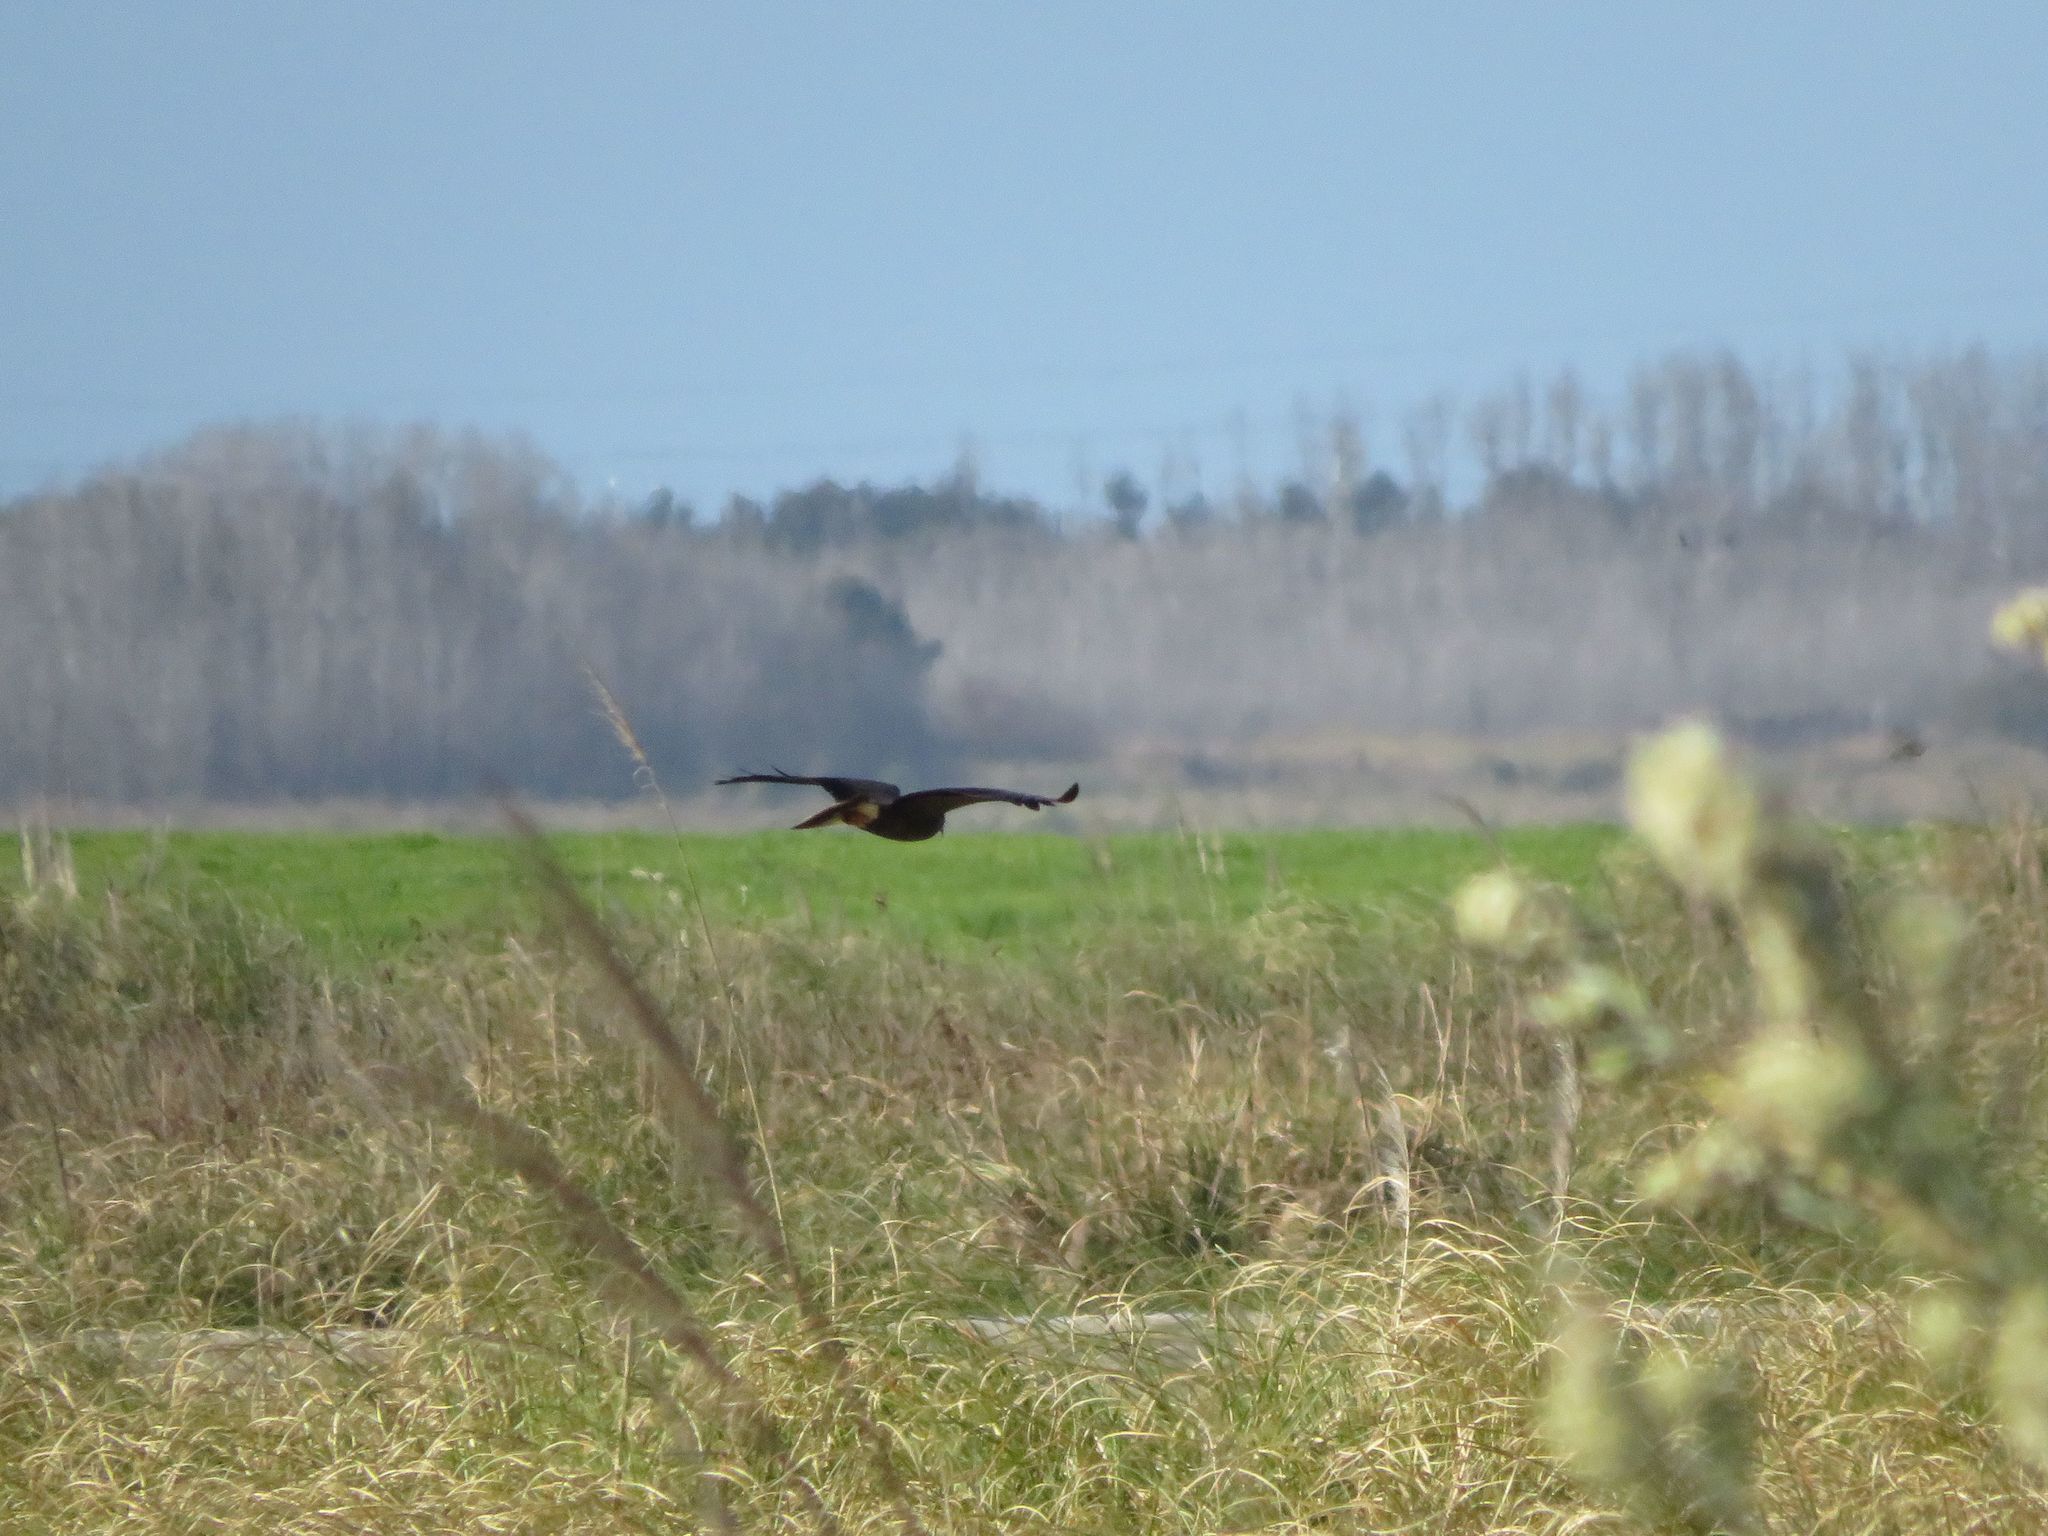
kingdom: Animalia
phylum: Chordata
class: Aves
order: Accipitriformes
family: Accipitridae
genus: Rostrhamus
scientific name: Rostrhamus sociabilis
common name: Snail kite
